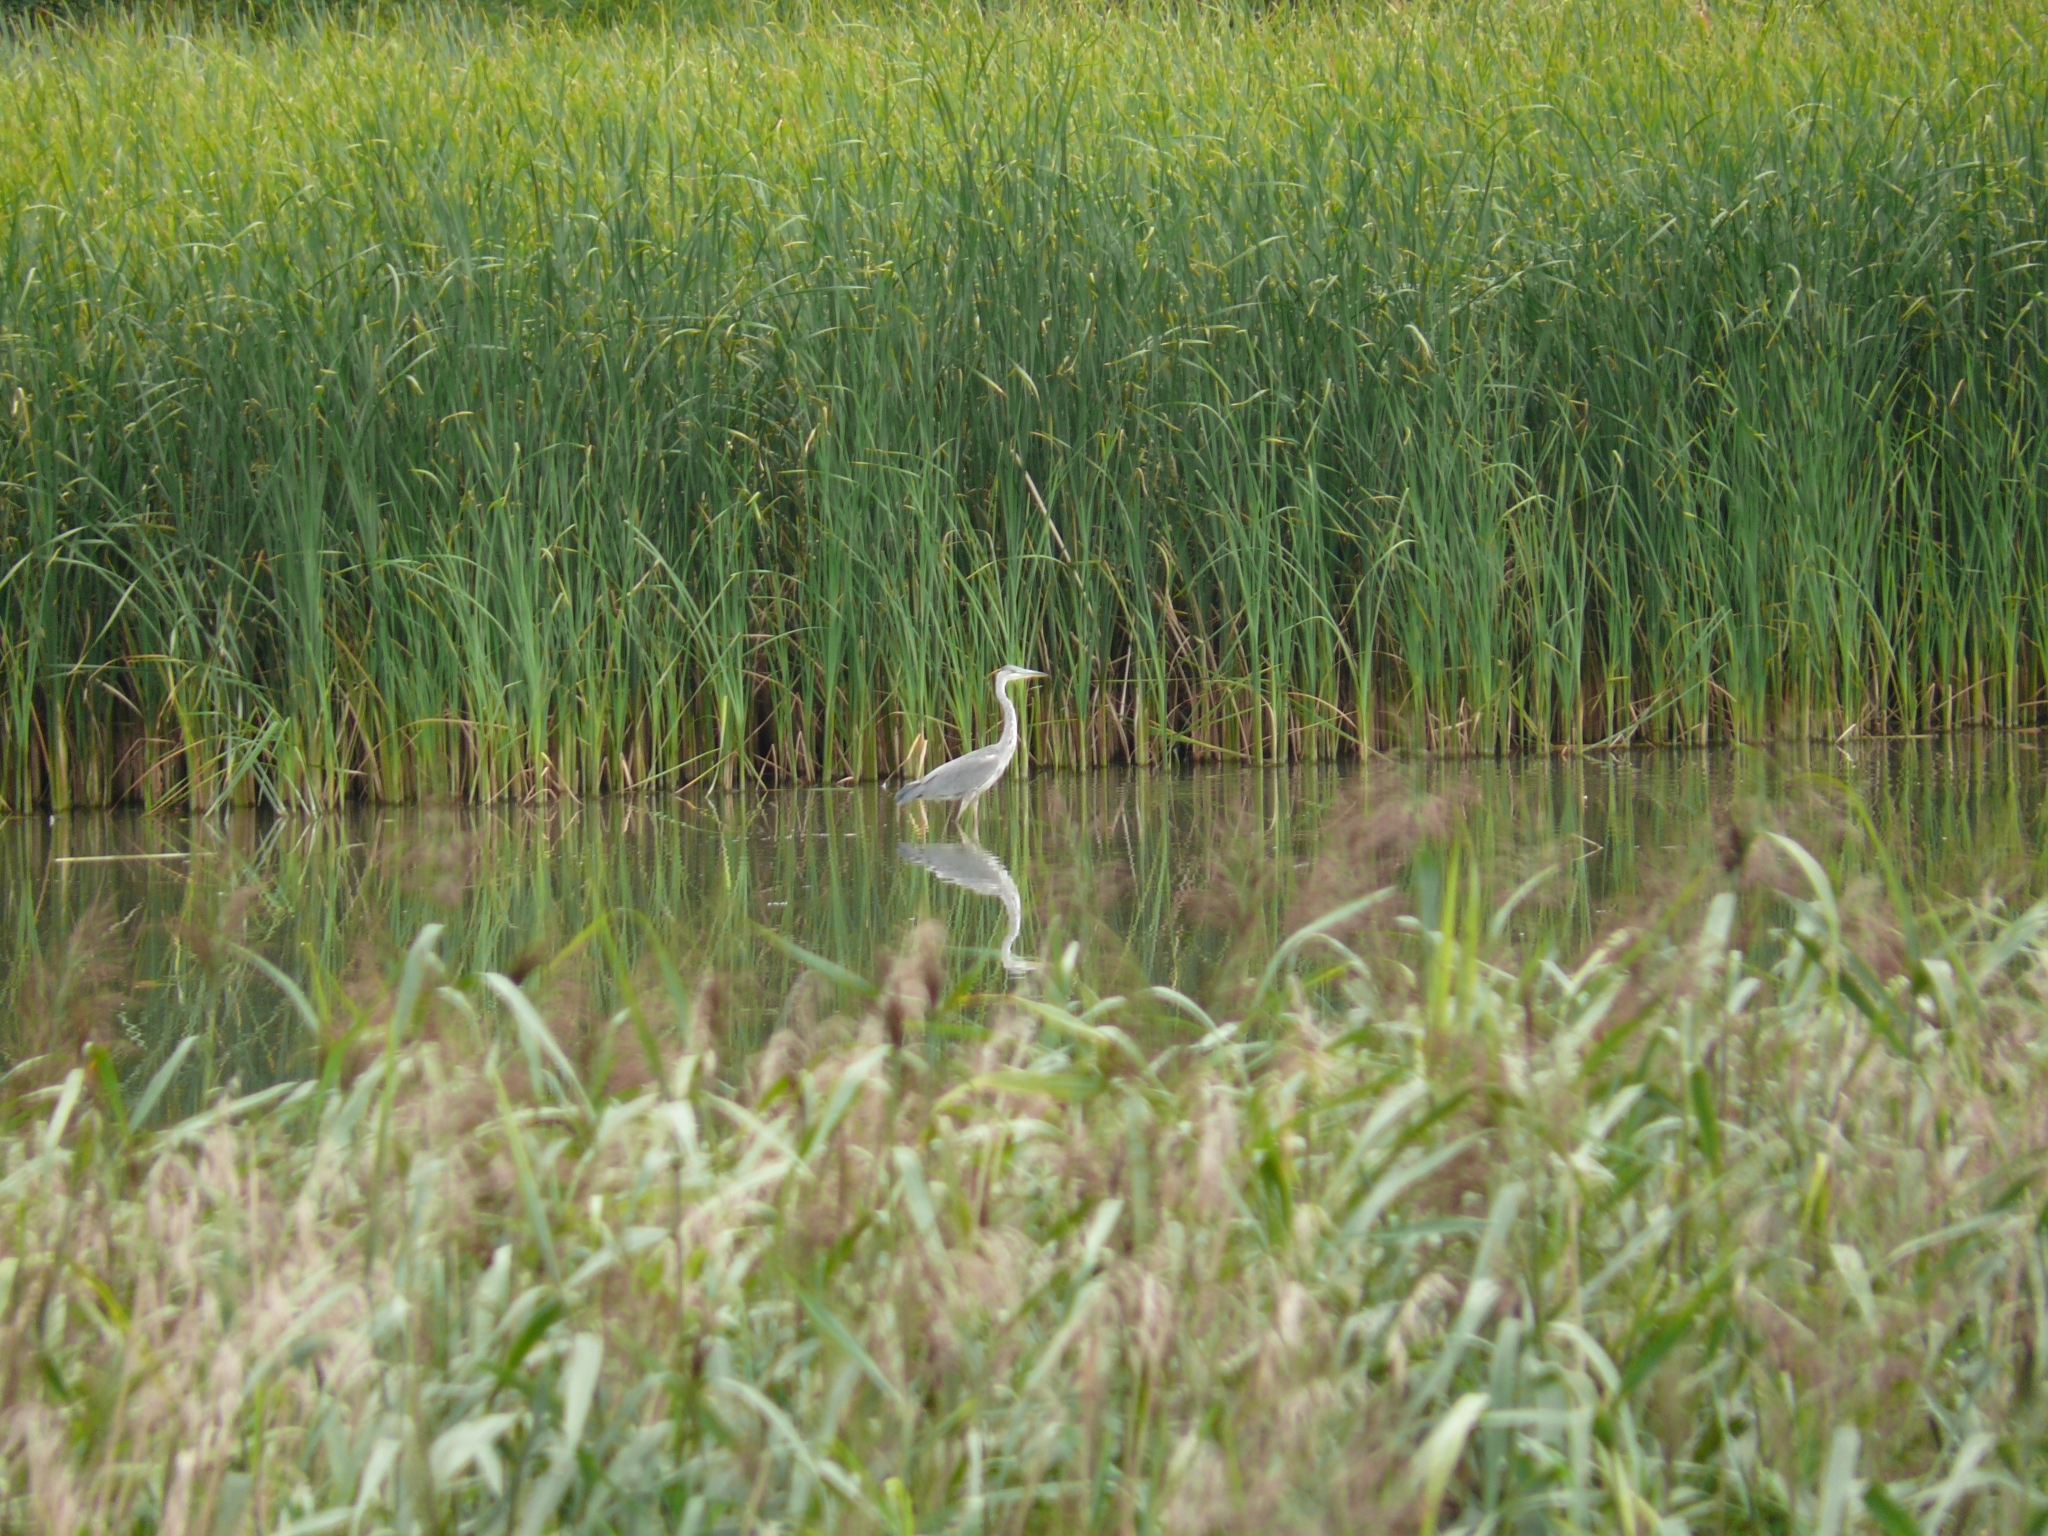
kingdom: Animalia
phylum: Chordata
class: Aves
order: Pelecaniformes
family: Ardeidae
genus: Ardea
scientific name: Ardea cinerea
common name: Grey heron
